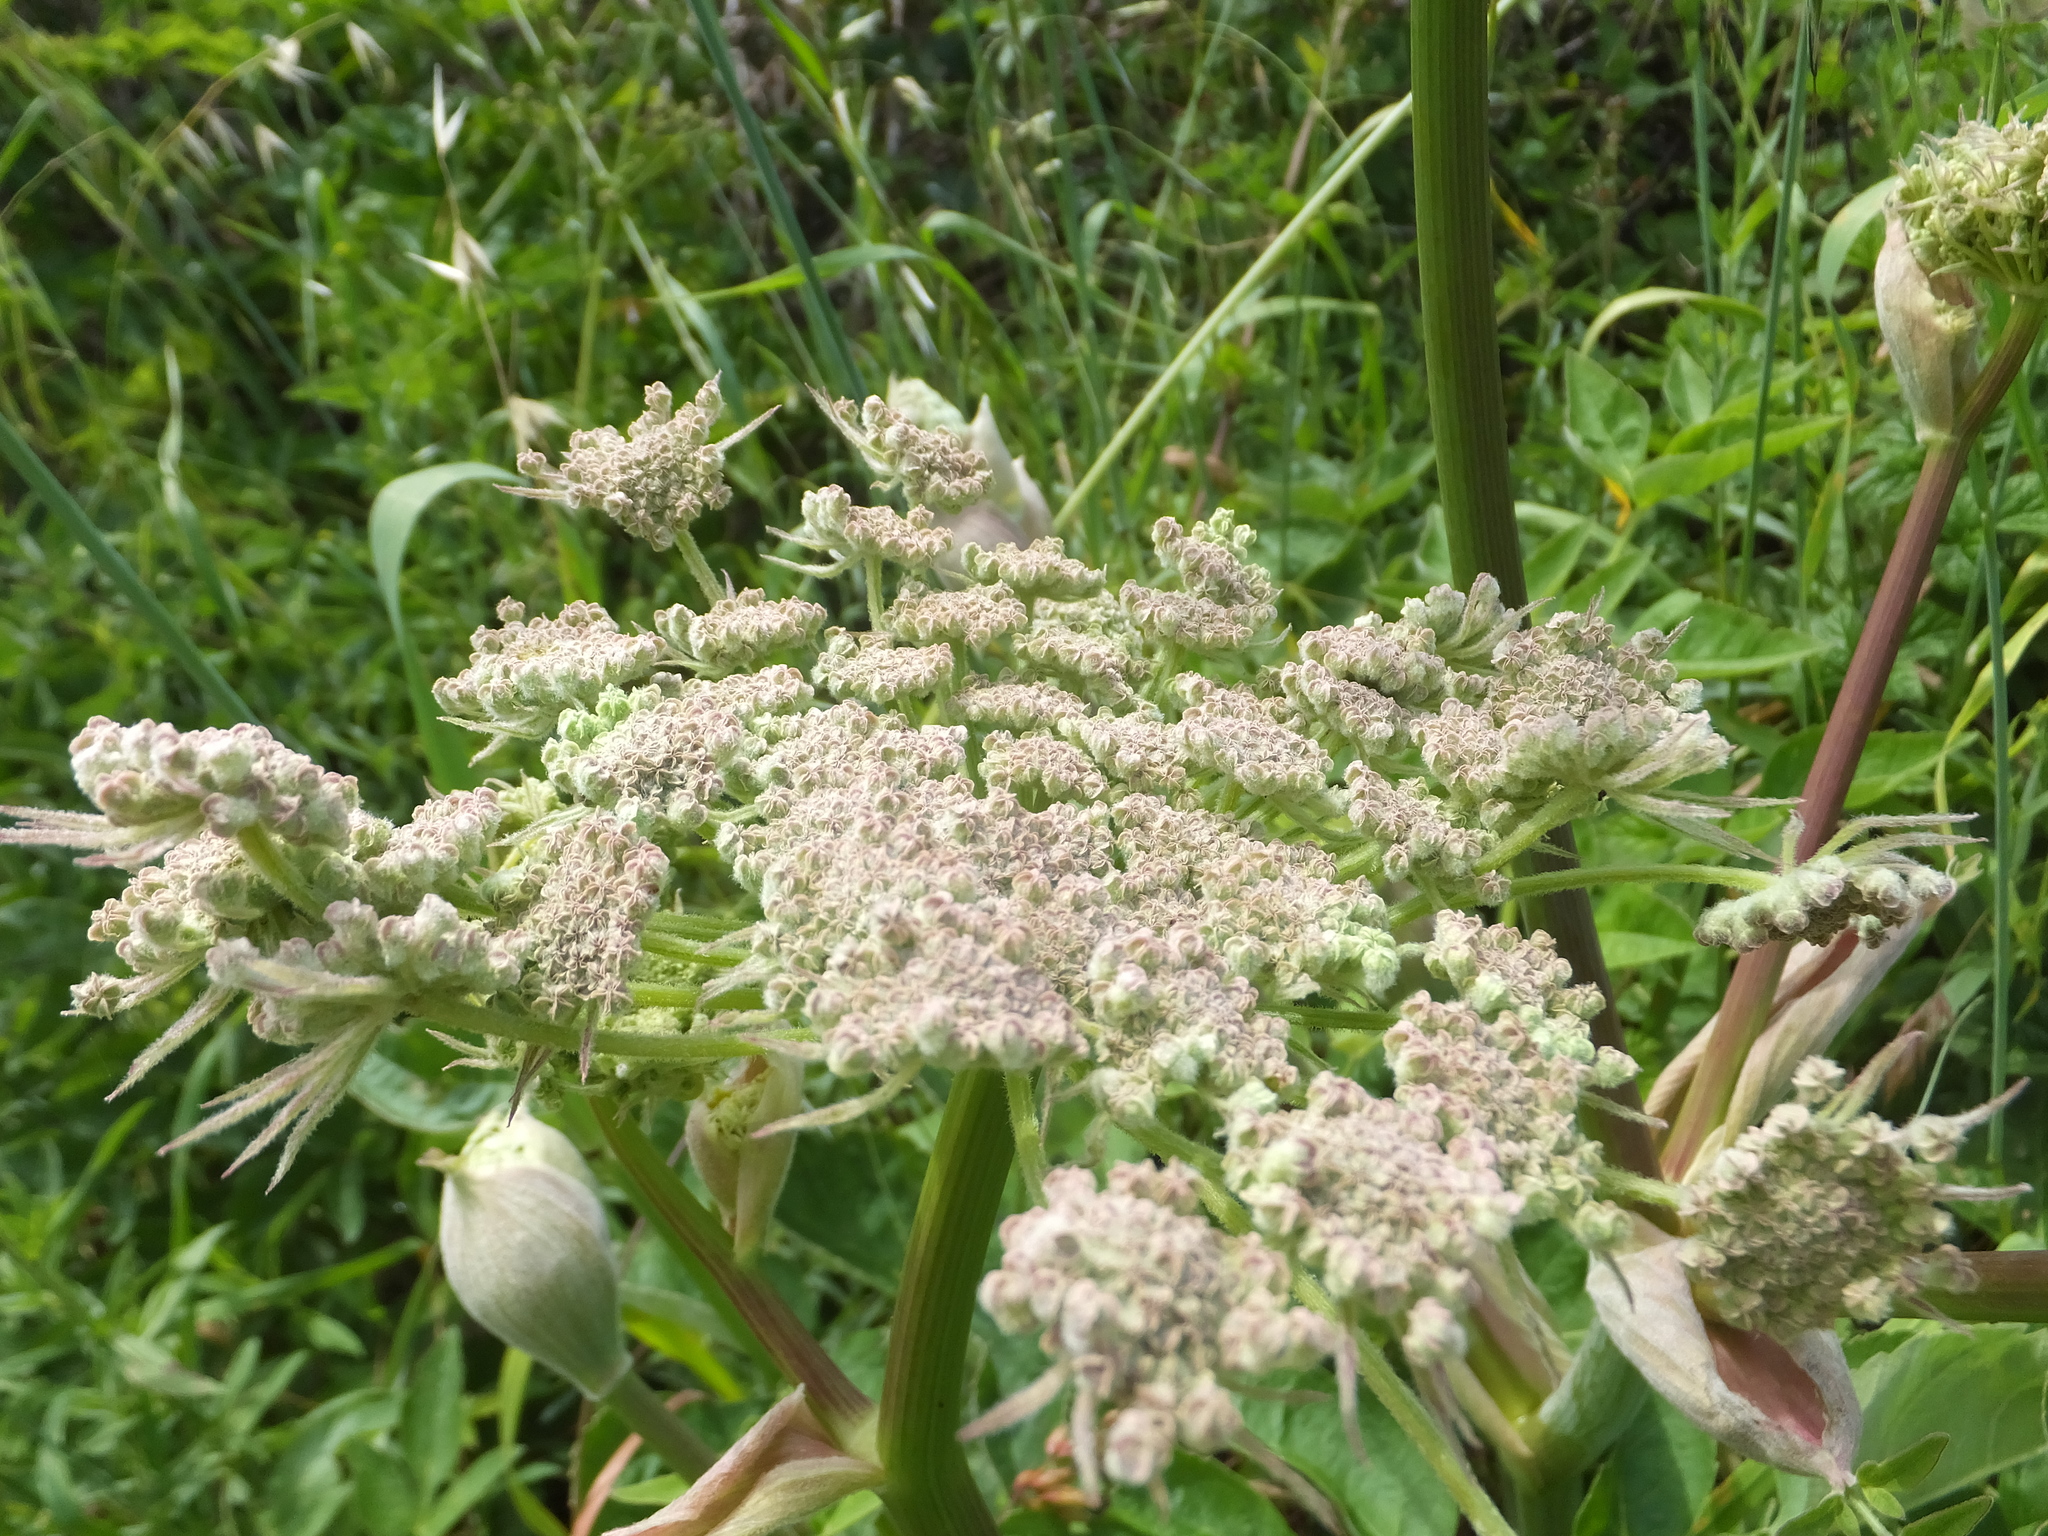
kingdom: Plantae
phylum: Tracheophyta
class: Magnoliopsida
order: Apiales
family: Apiaceae
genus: Angelica
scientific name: Angelica hendersonii
